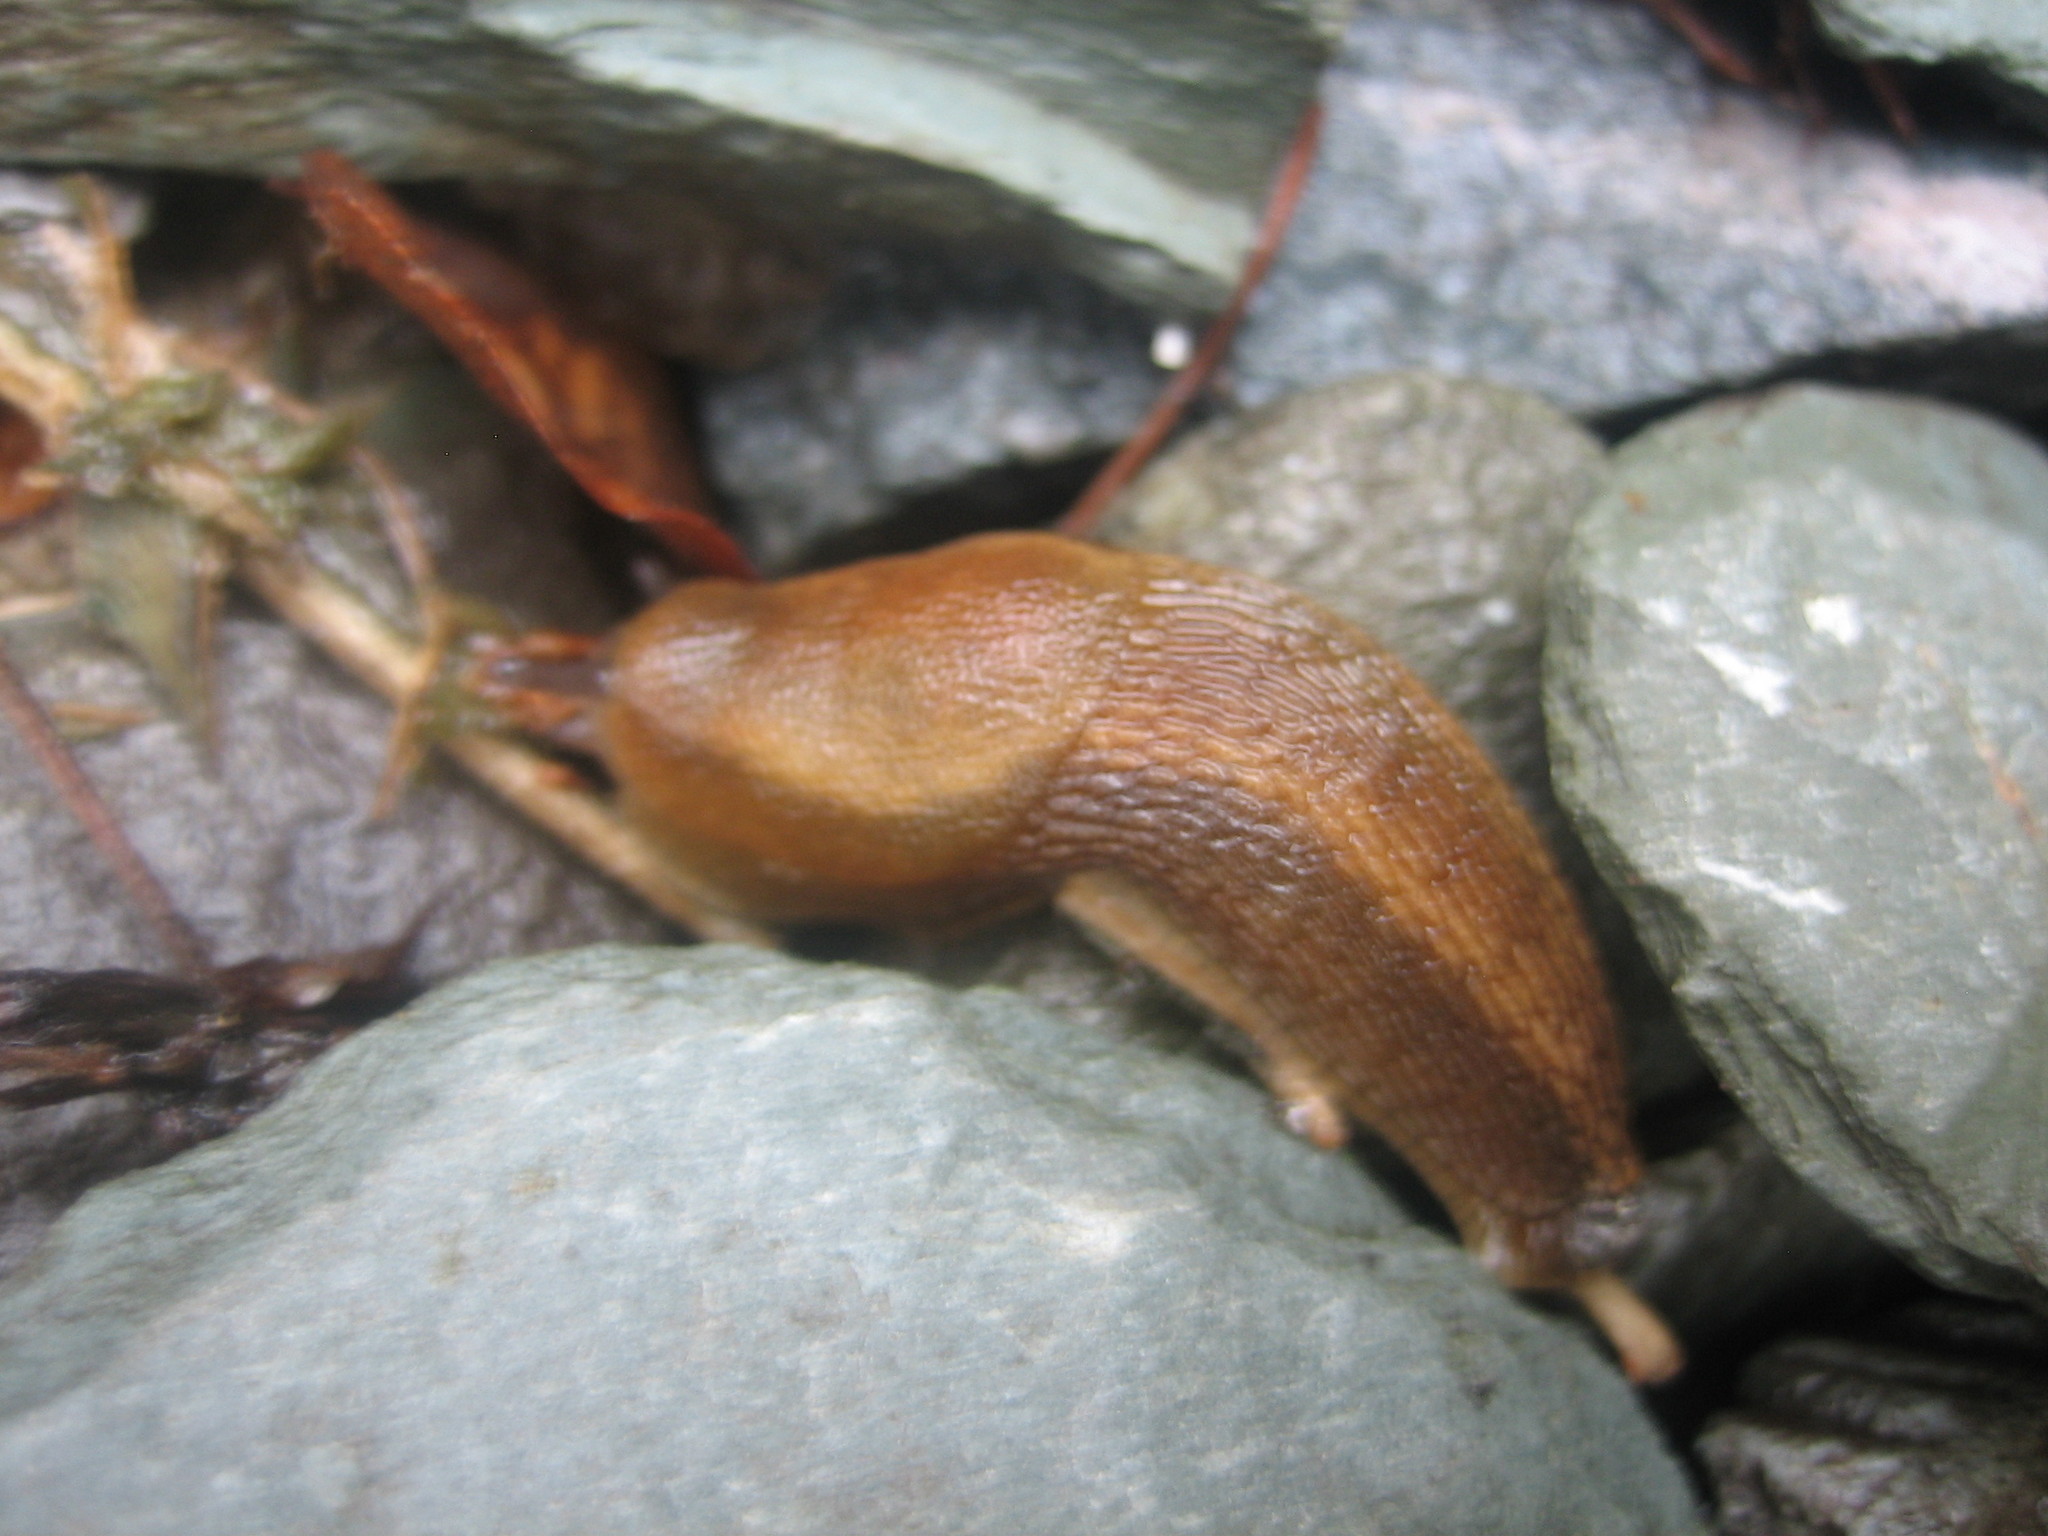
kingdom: Animalia
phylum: Mollusca
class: Gastropoda
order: Stylommatophora
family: Arionidae
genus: Arion
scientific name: Arion vulgaris
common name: Lusitanian slug
